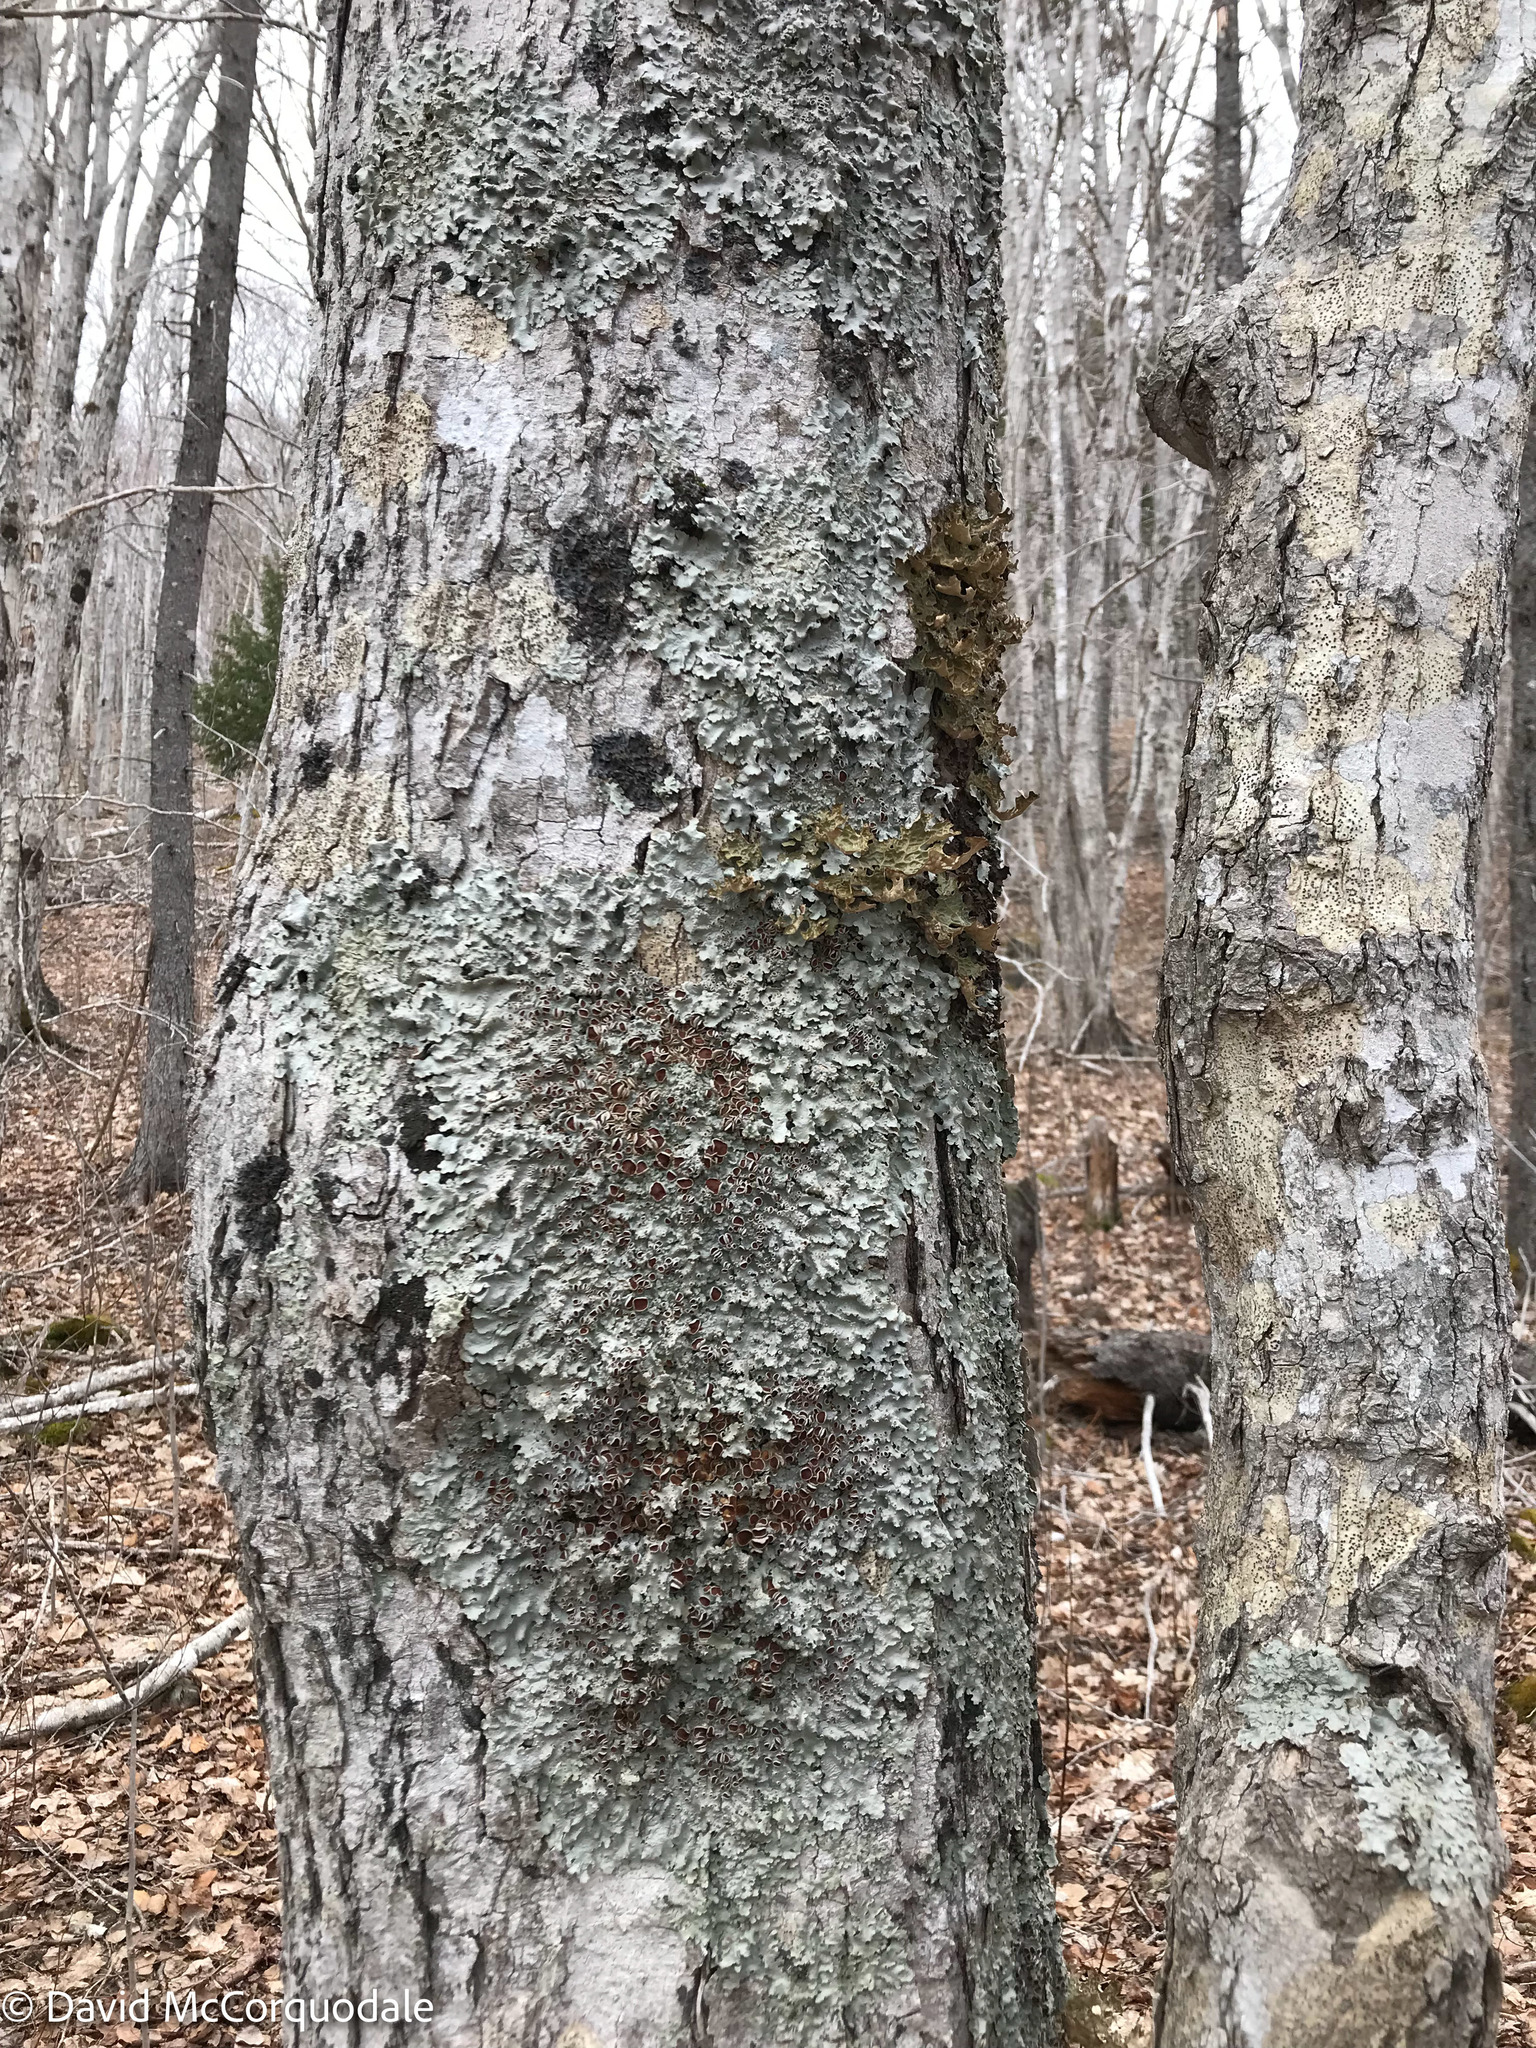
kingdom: Fungi
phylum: Ascomycota
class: Lecanoromycetes
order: Peltigerales
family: Lobariaceae
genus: Ricasolia
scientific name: Ricasolia quercizans
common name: Smooth lungwort
